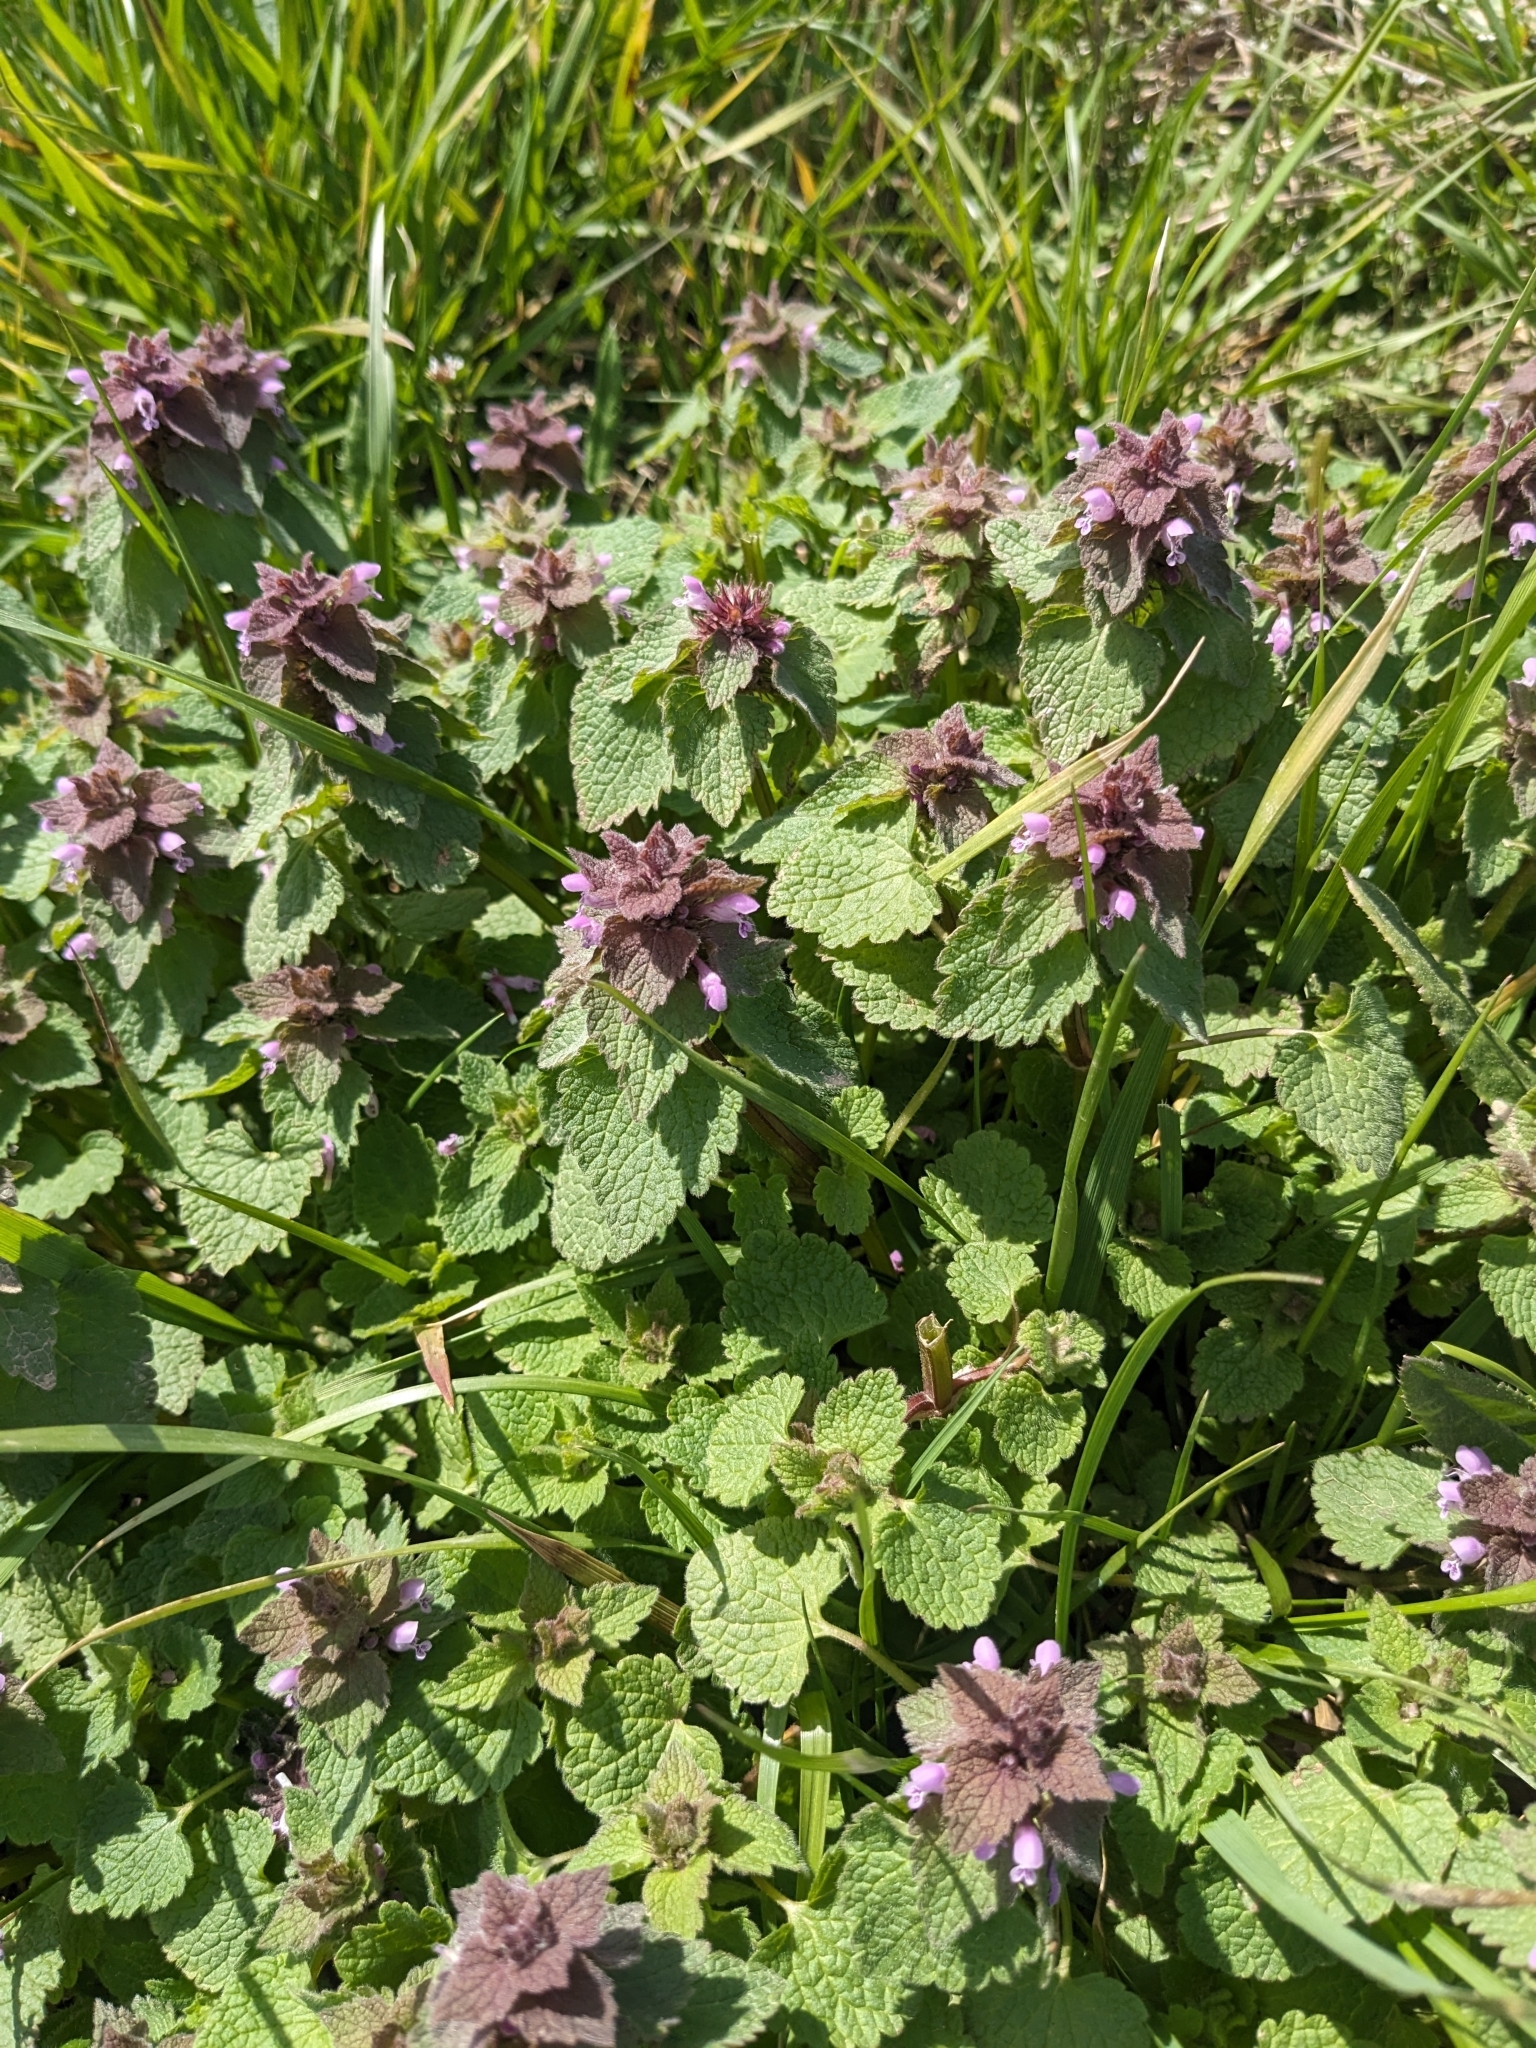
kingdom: Plantae
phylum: Tracheophyta
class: Magnoliopsida
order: Lamiales
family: Lamiaceae
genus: Lamium
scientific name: Lamium purpureum
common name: Red dead-nettle
